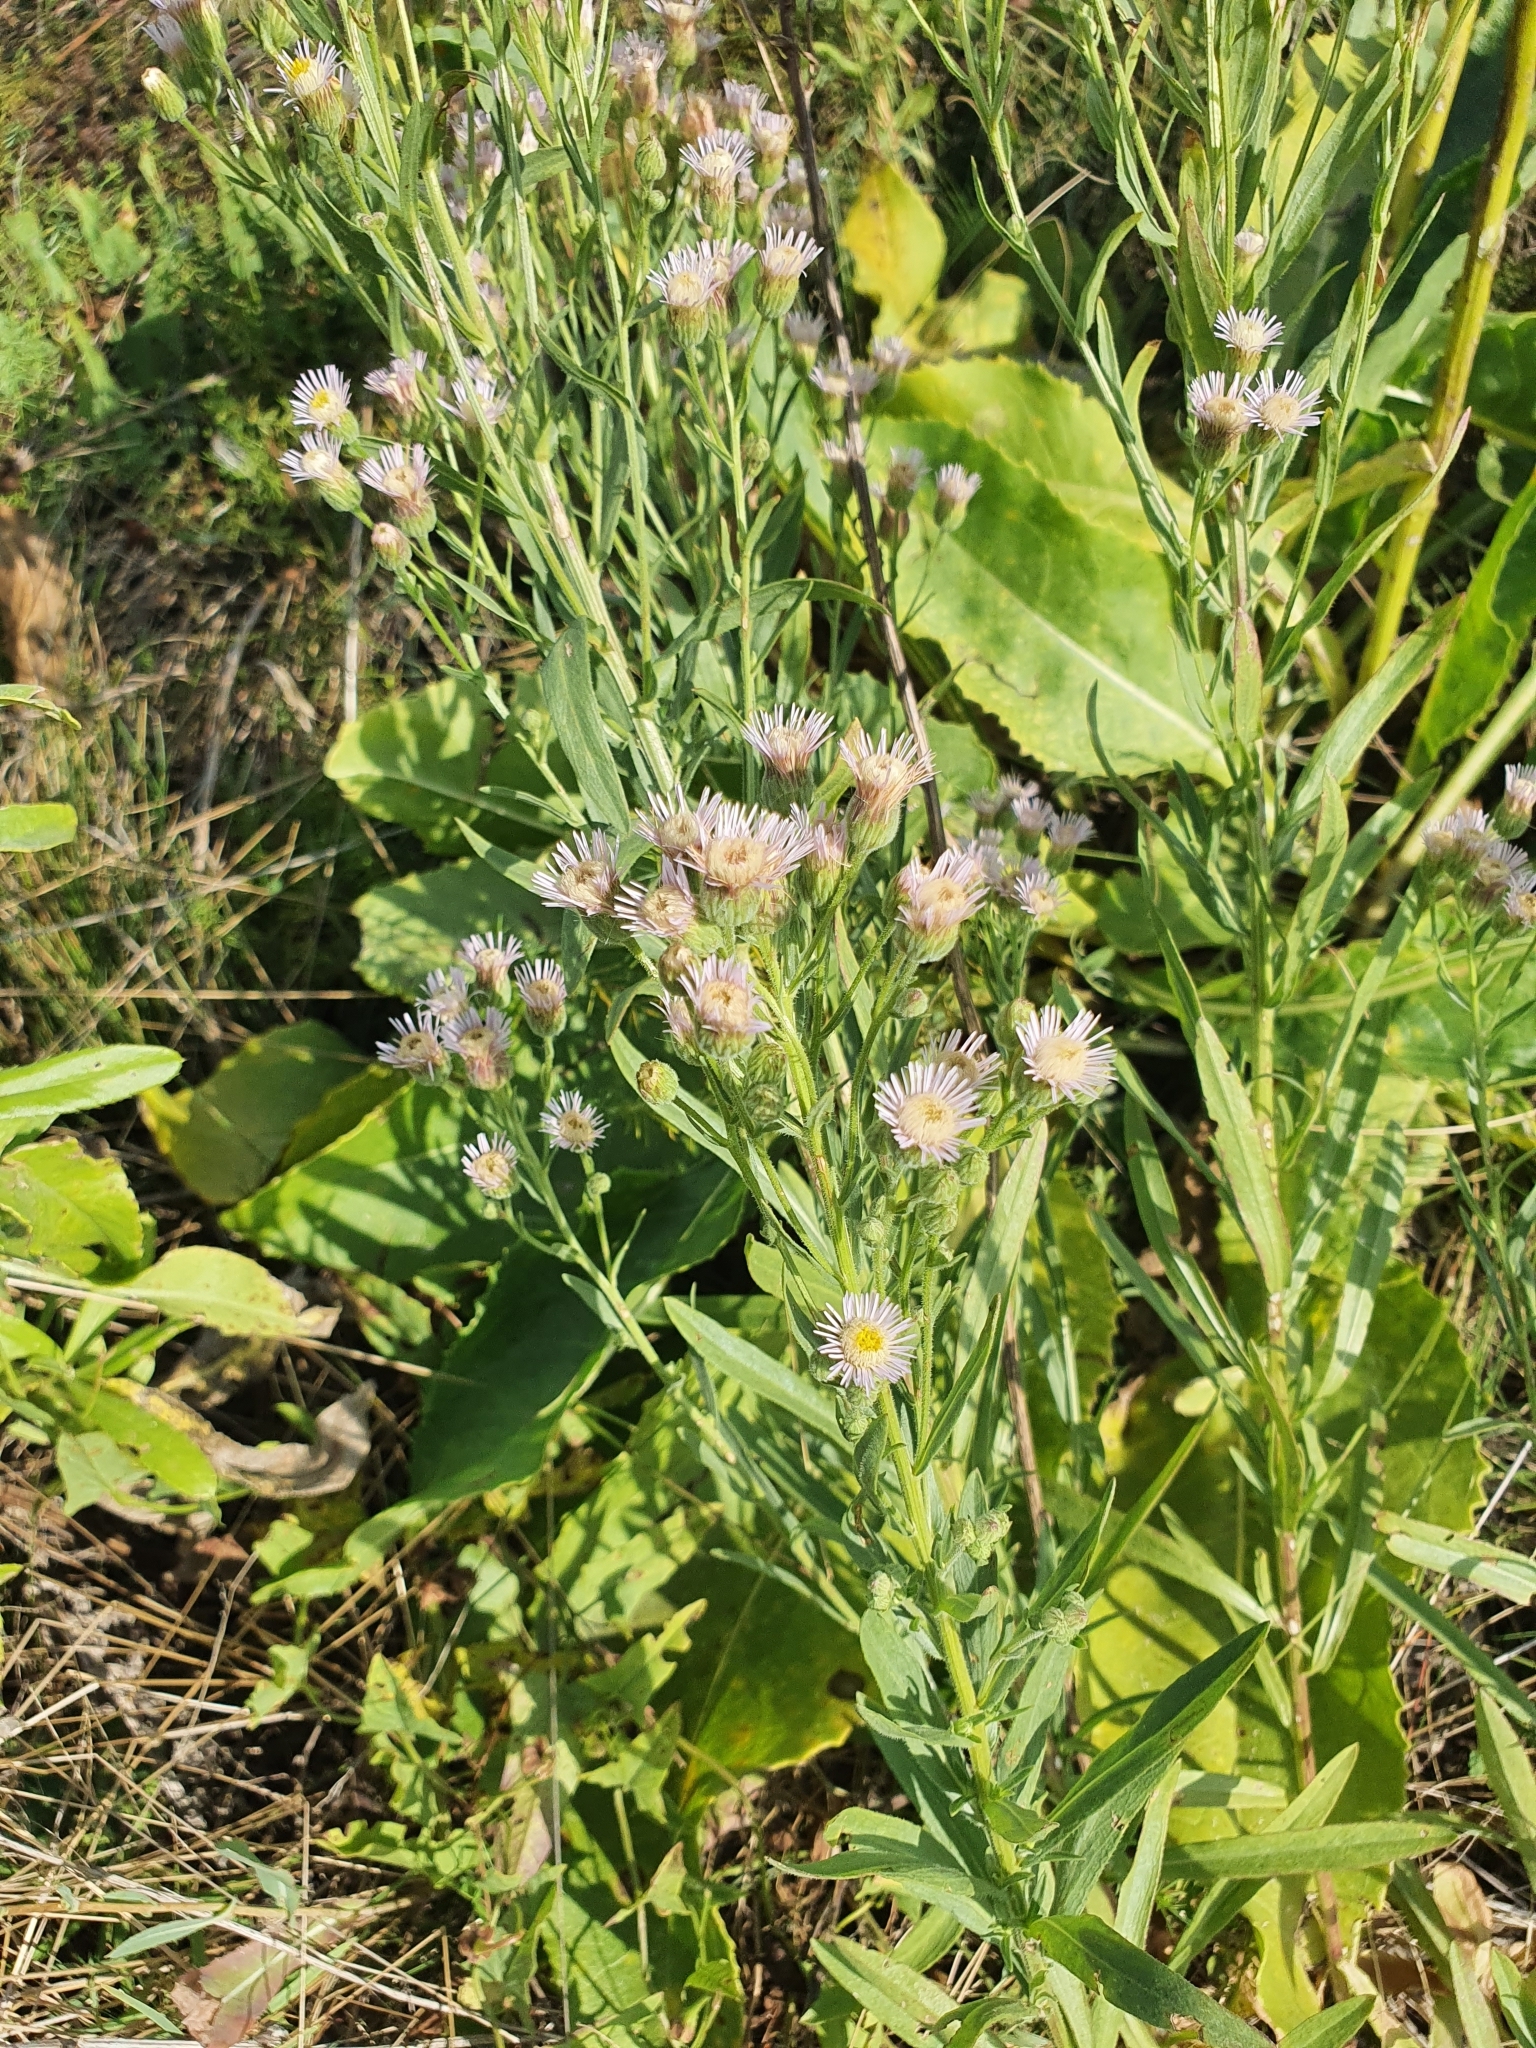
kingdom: Plantae
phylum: Tracheophyta
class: Magnoliopsida
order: Asterales
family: Asteraceae
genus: Erigeron
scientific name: Erigeron acris
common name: Blue fleabane
